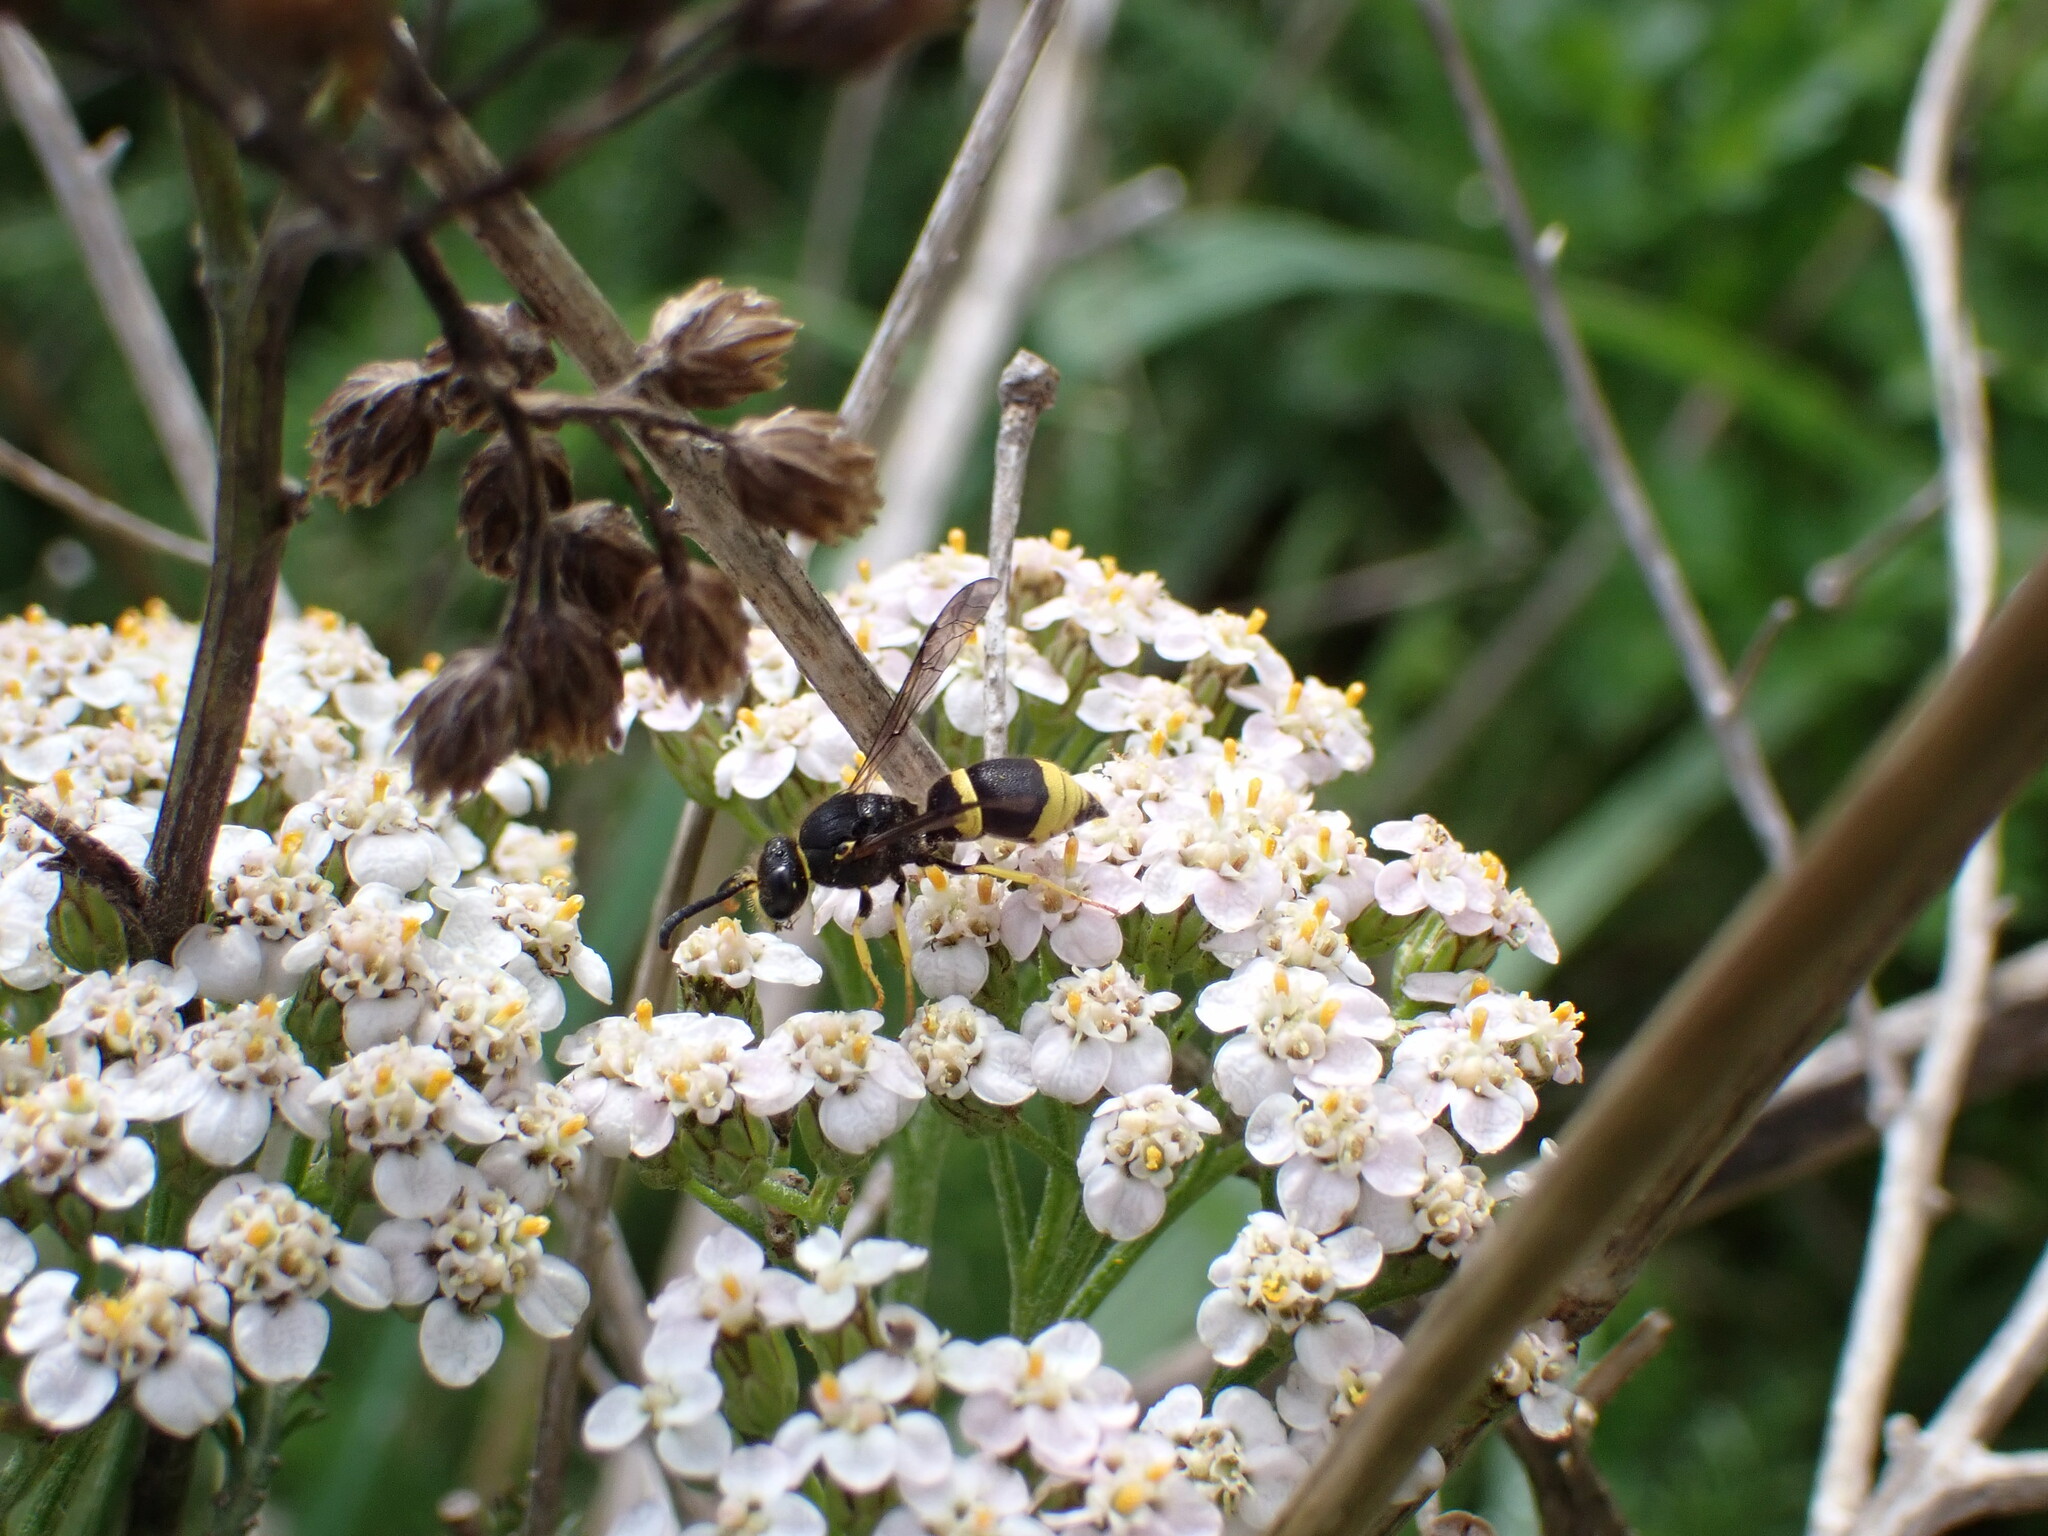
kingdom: Animalia
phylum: Arthropoda
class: Insecta
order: Hymenoptera
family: Vespidae
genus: Ancistrocerus
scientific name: Ancistrocerus gazella
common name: European tube wasp
